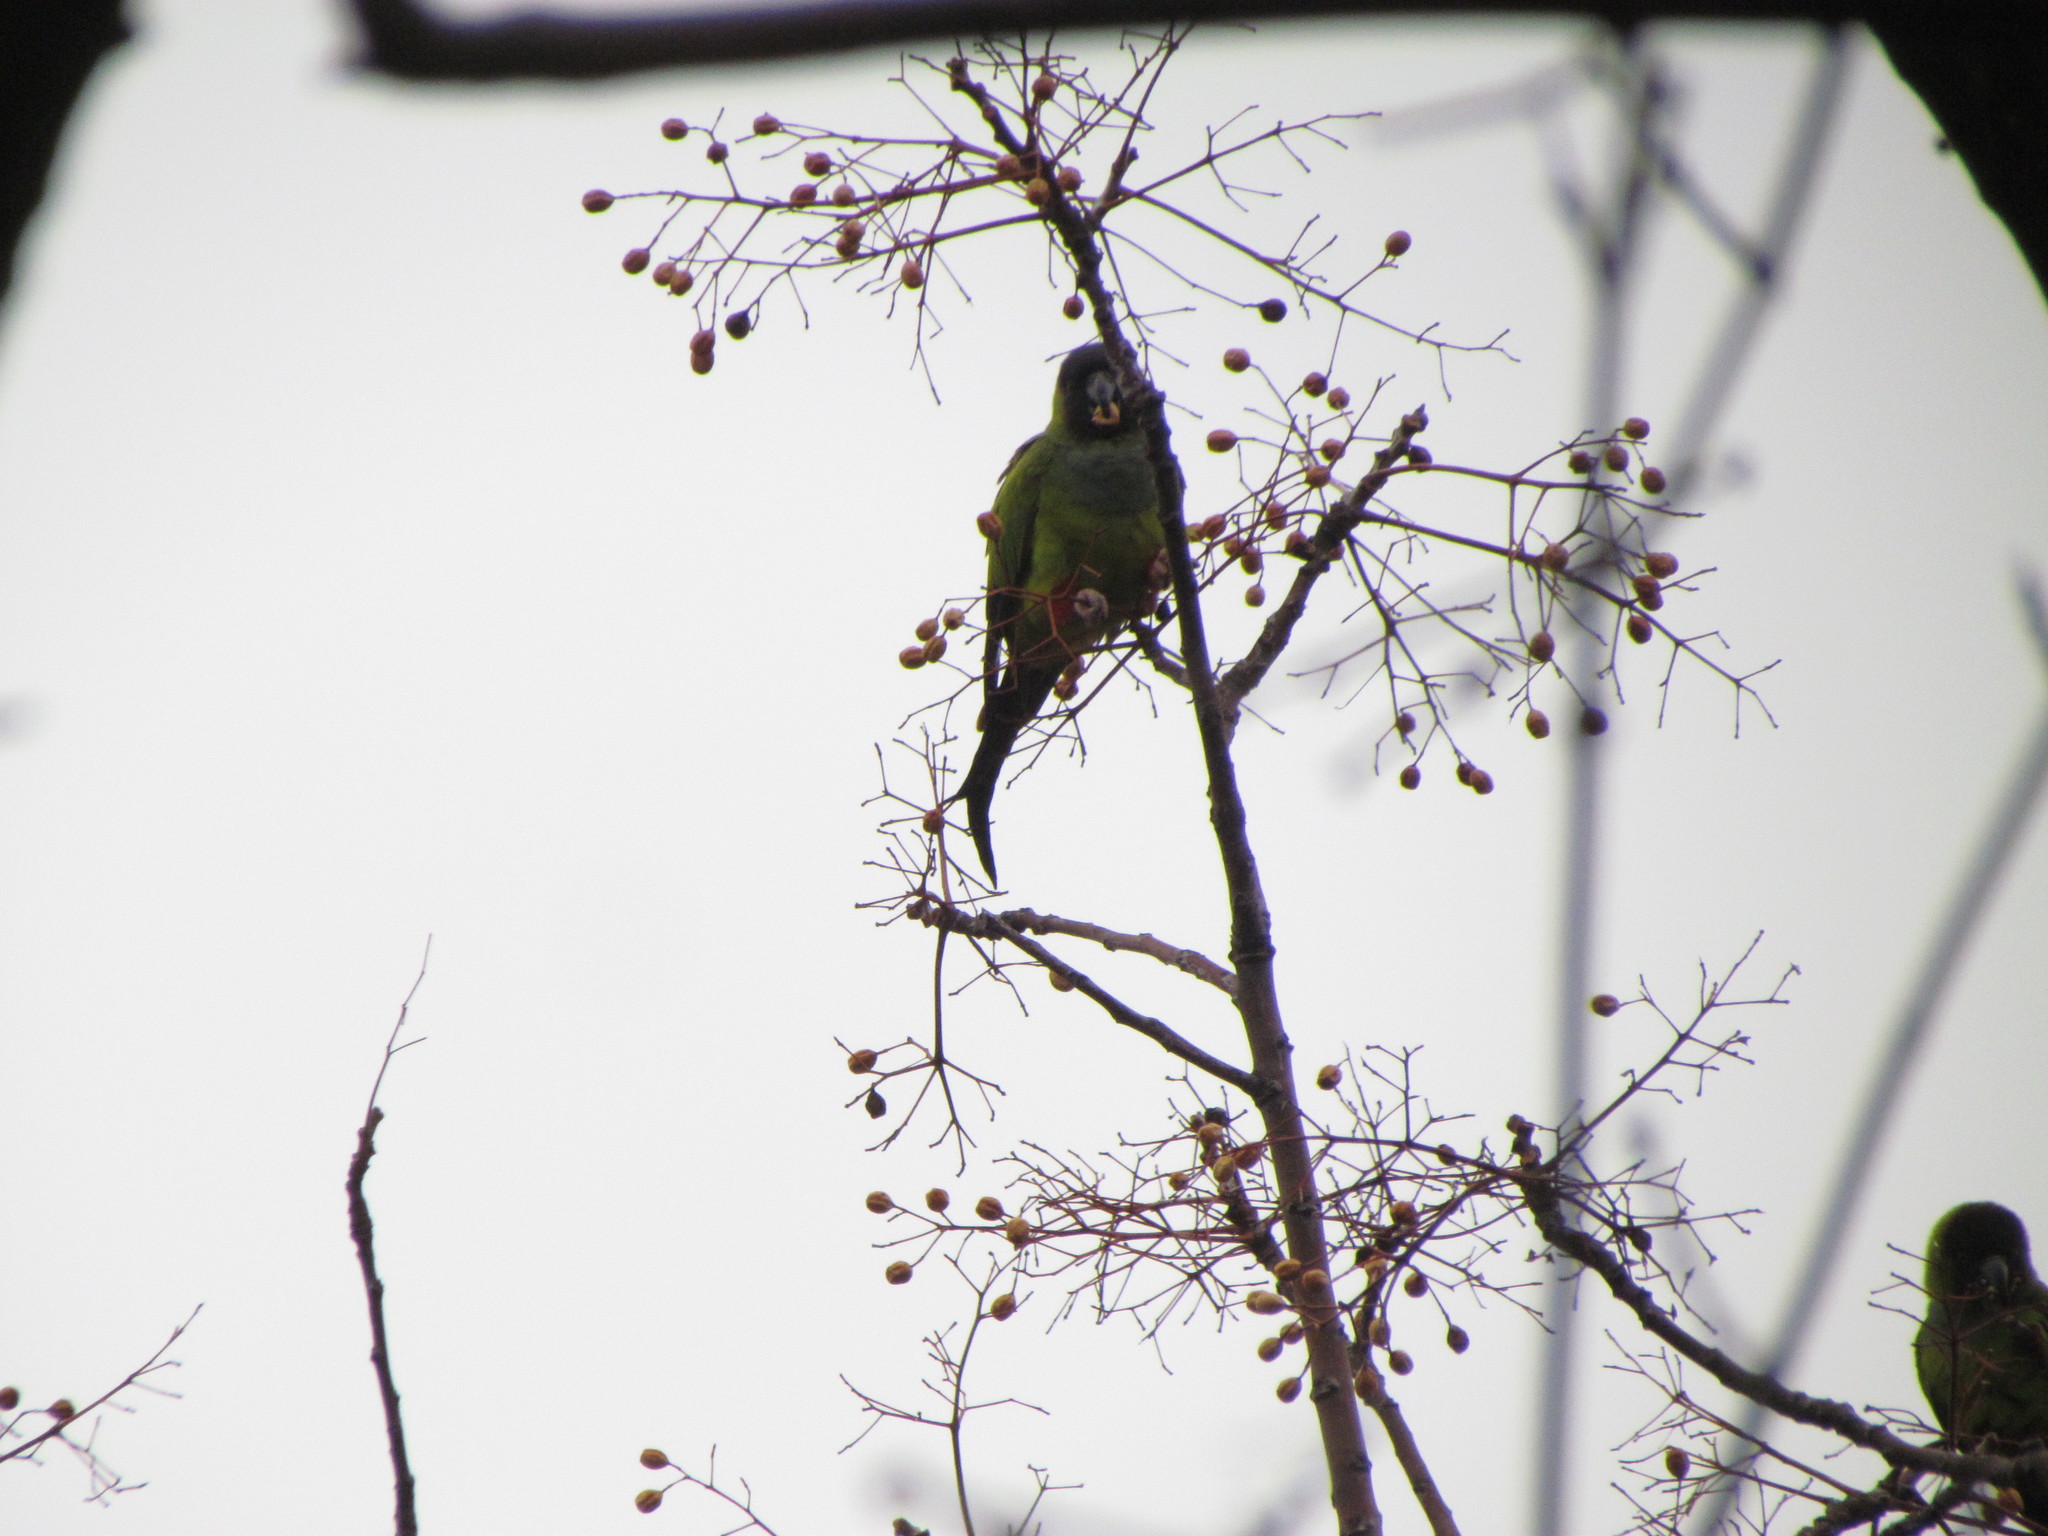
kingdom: Animalia
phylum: Chordata
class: Aves
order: Psittaciformes
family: Psittacidae
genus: Nandayus
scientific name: Nandayus nenday
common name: Nanday parakeet
